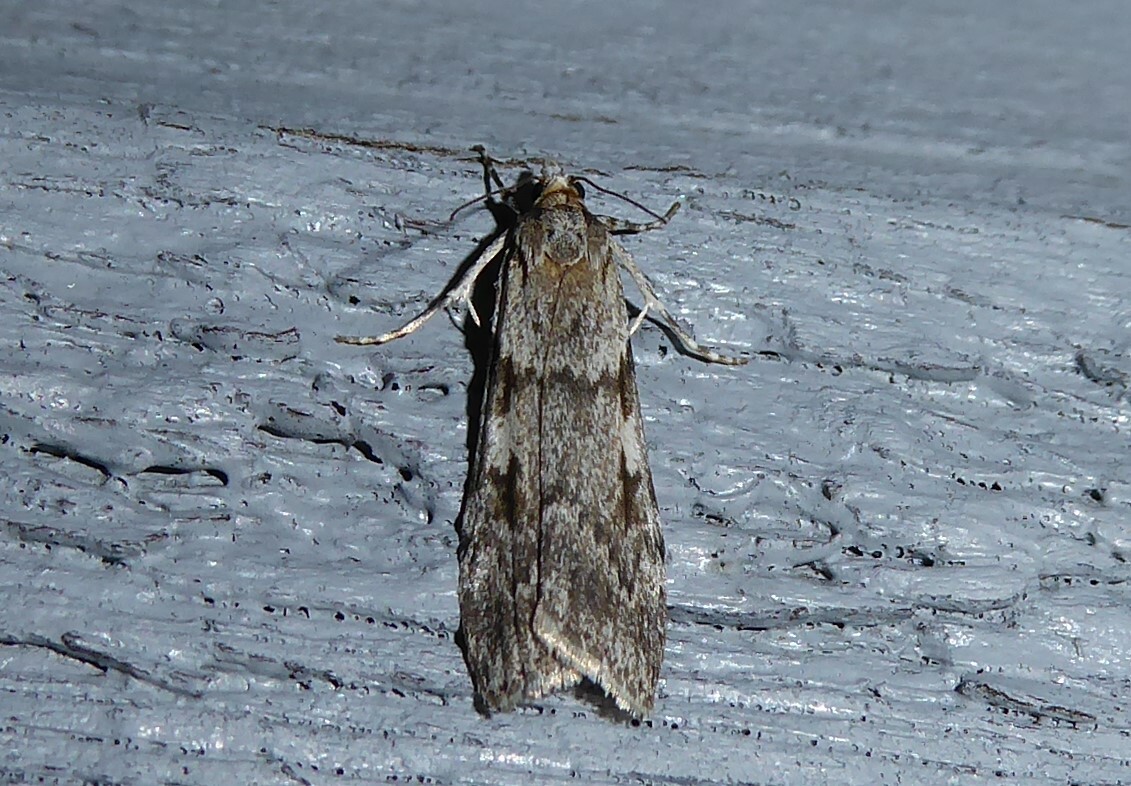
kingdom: Animalia
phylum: Arthropoda
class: Insecta
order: Lepidoptera
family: Crambidae
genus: Scoparia
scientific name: Scoparia halopis
